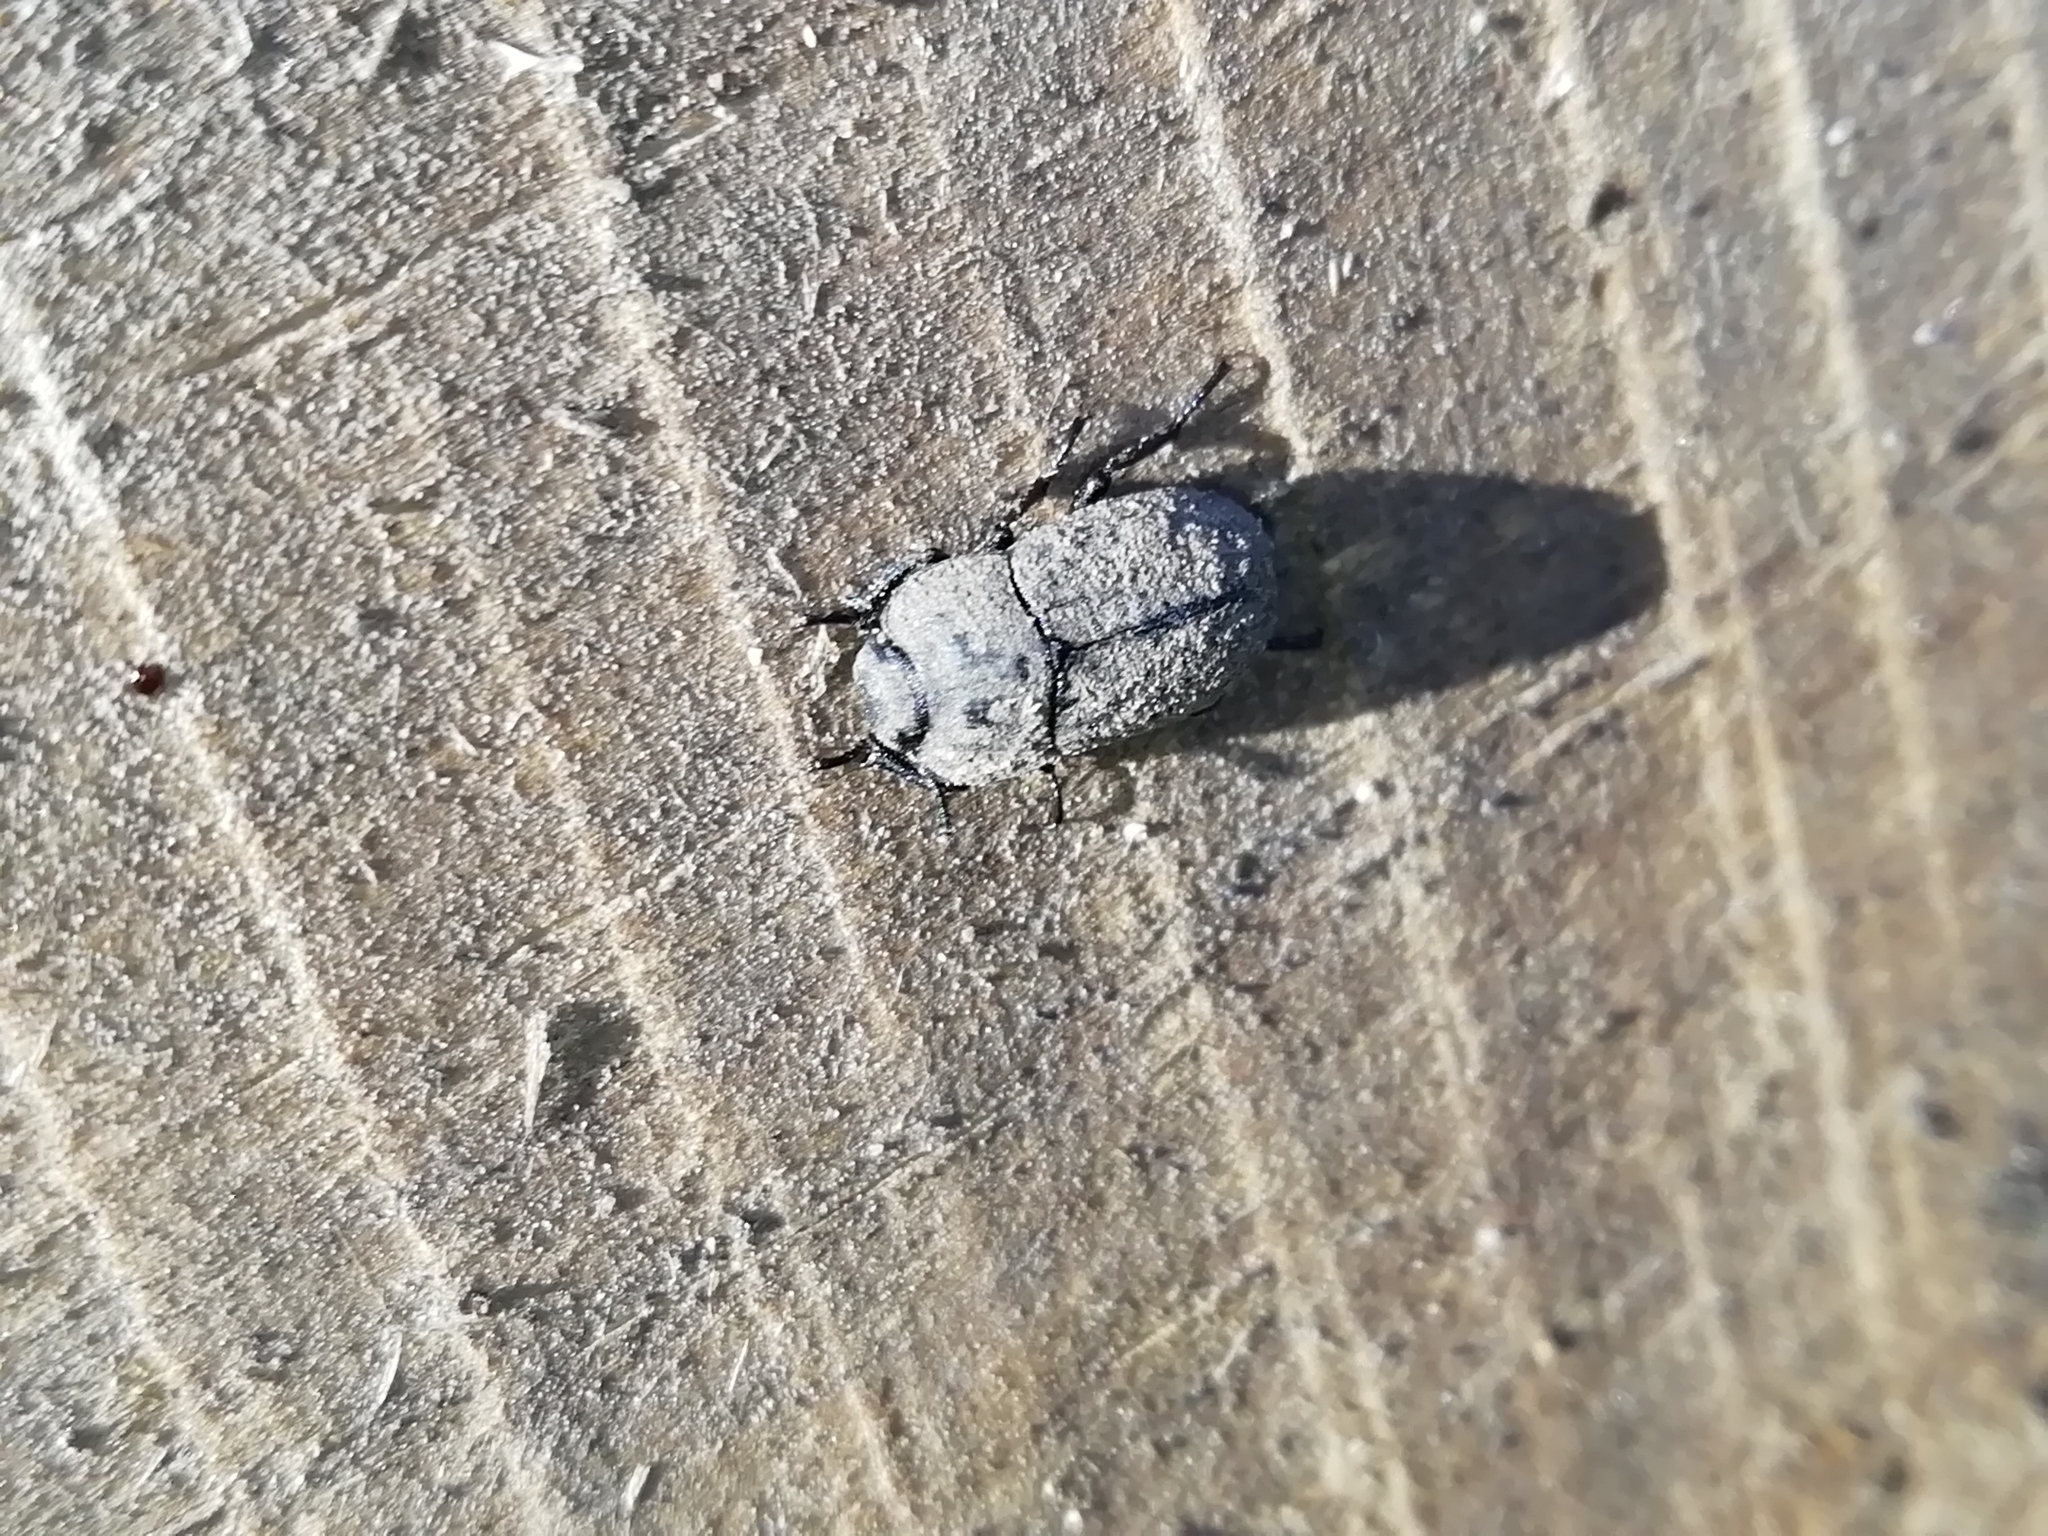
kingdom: Animalia
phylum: Arthropoda
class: Insecta
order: Coleoptera
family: Tenebrionidae
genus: Opatrum
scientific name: Opatrum sabulosum
